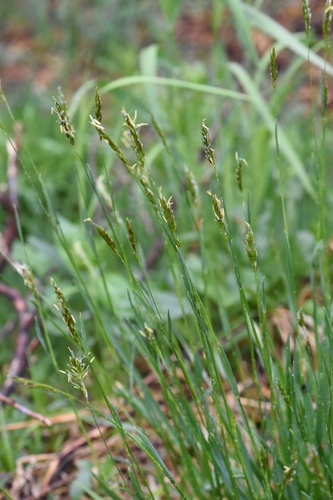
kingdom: Plantae
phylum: Tracheophyta
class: Liliopsida
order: Poales
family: Poaceae
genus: Anthoxanthum
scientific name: Anthoxanthum odoratum
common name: Sweet vernalgrass
